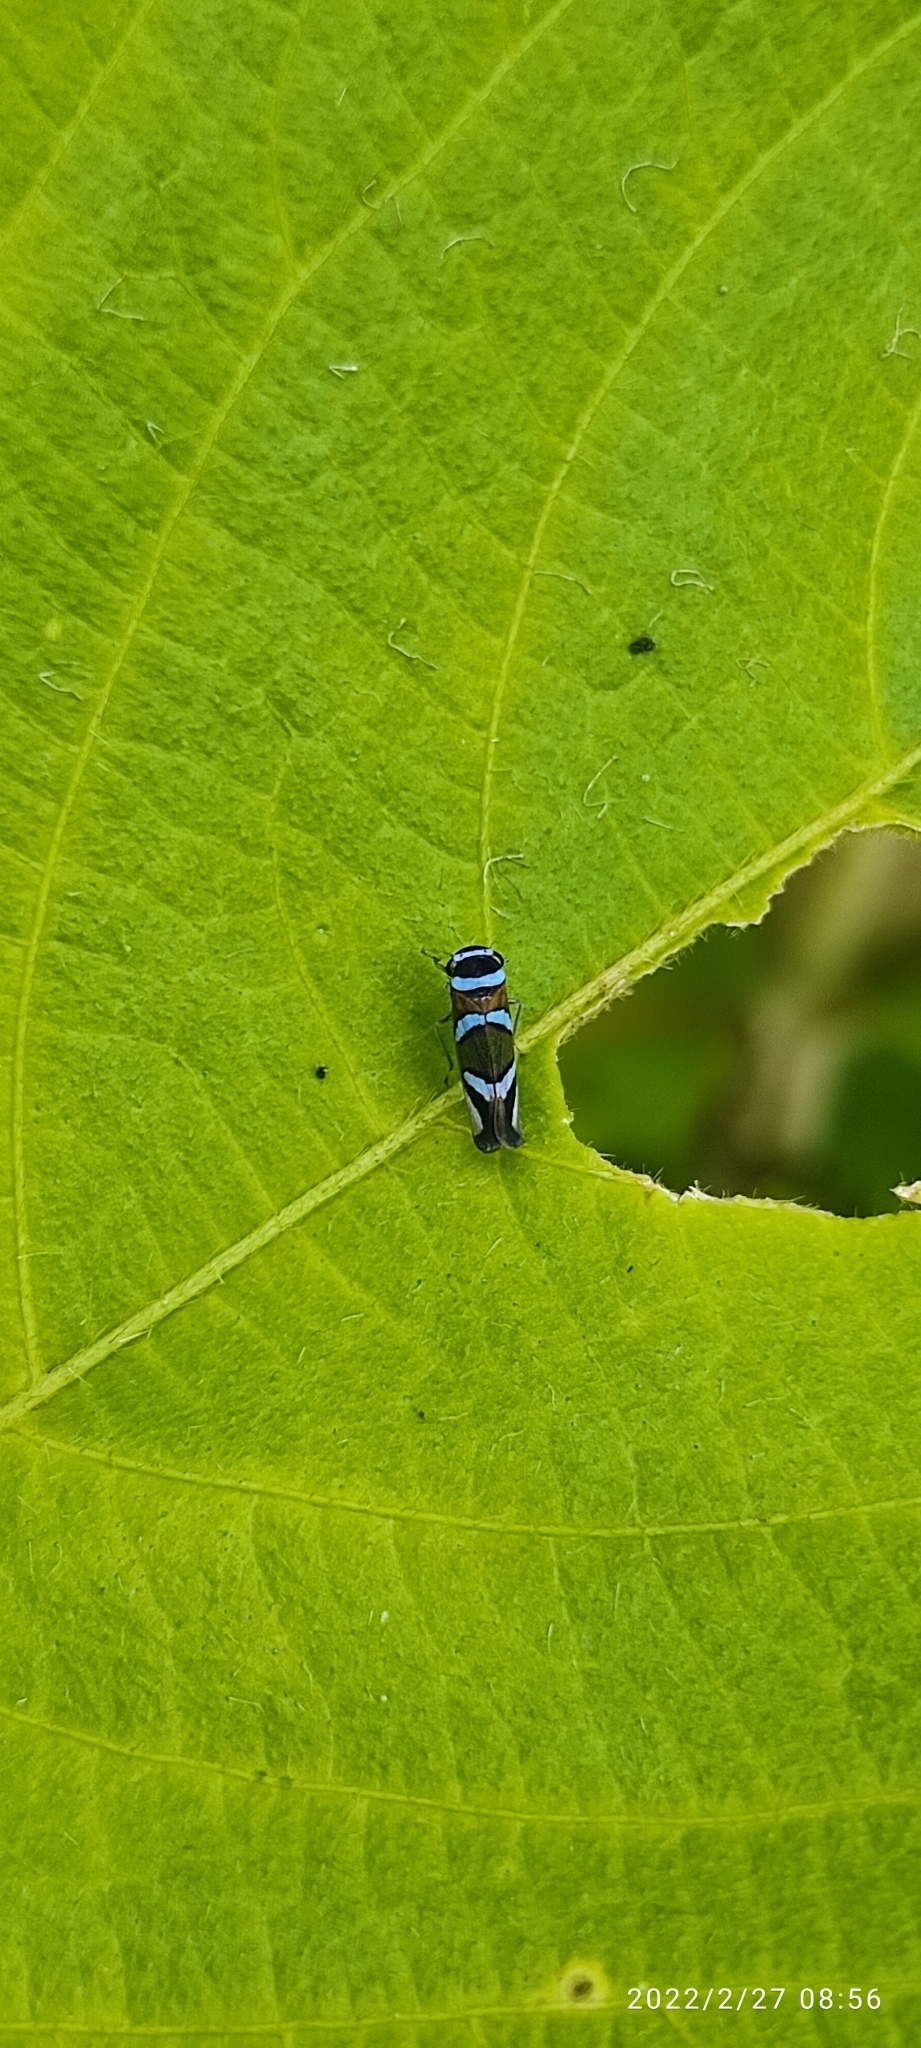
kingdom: Animalia
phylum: Arthropoda
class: Insecta
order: Hemiptera
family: Cicadellidae
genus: Macugonalia
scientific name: Macugonalia moesta
